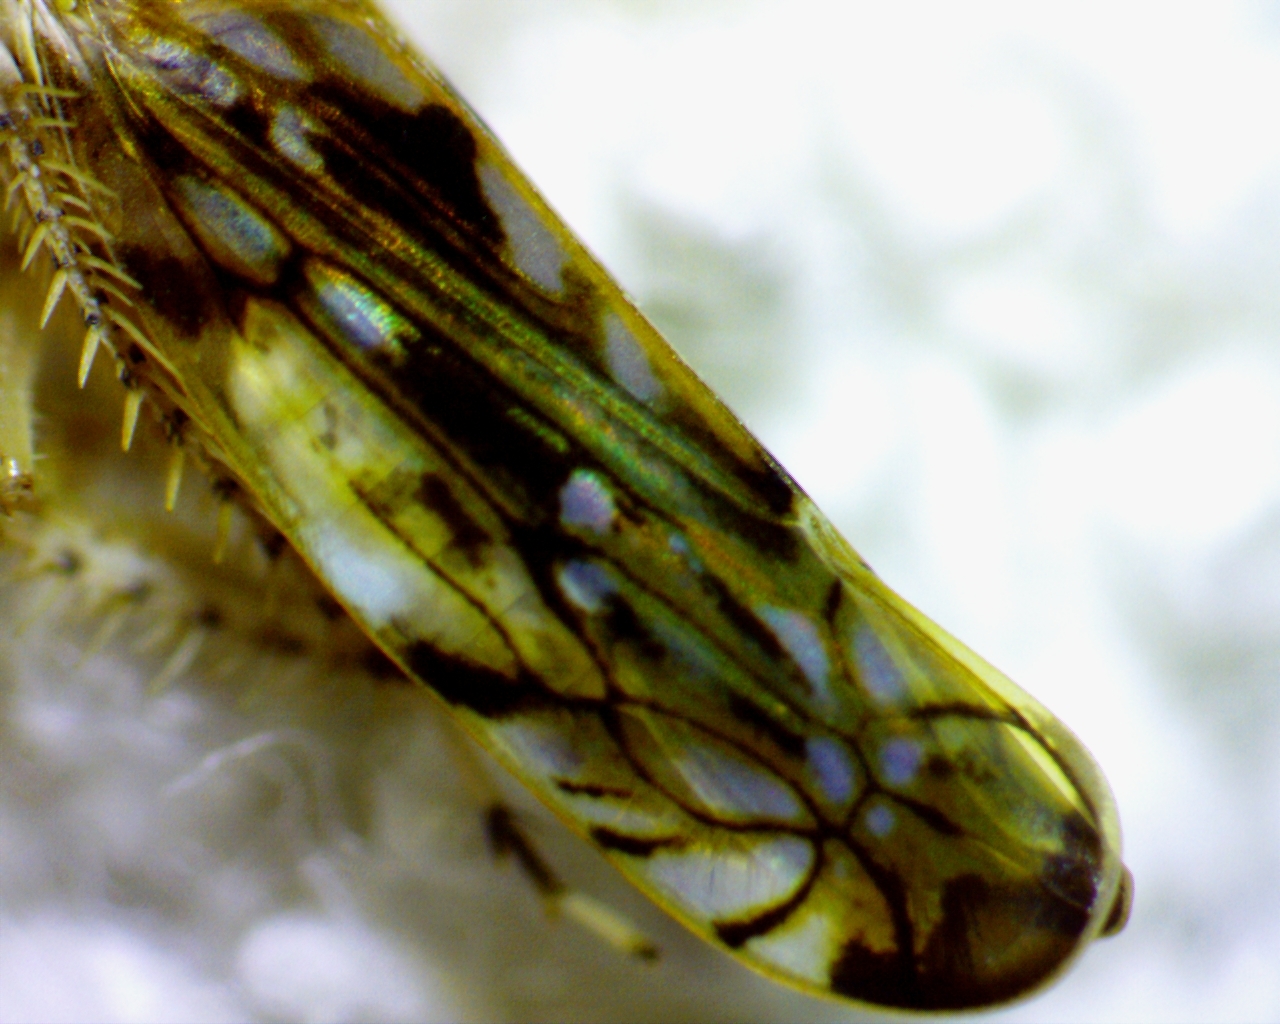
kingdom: Animalia
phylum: Arthropoda
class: Insecta
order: Hemiptera
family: Cicadellidae
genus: Scaphoideus
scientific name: Scaphoideus carinatus
